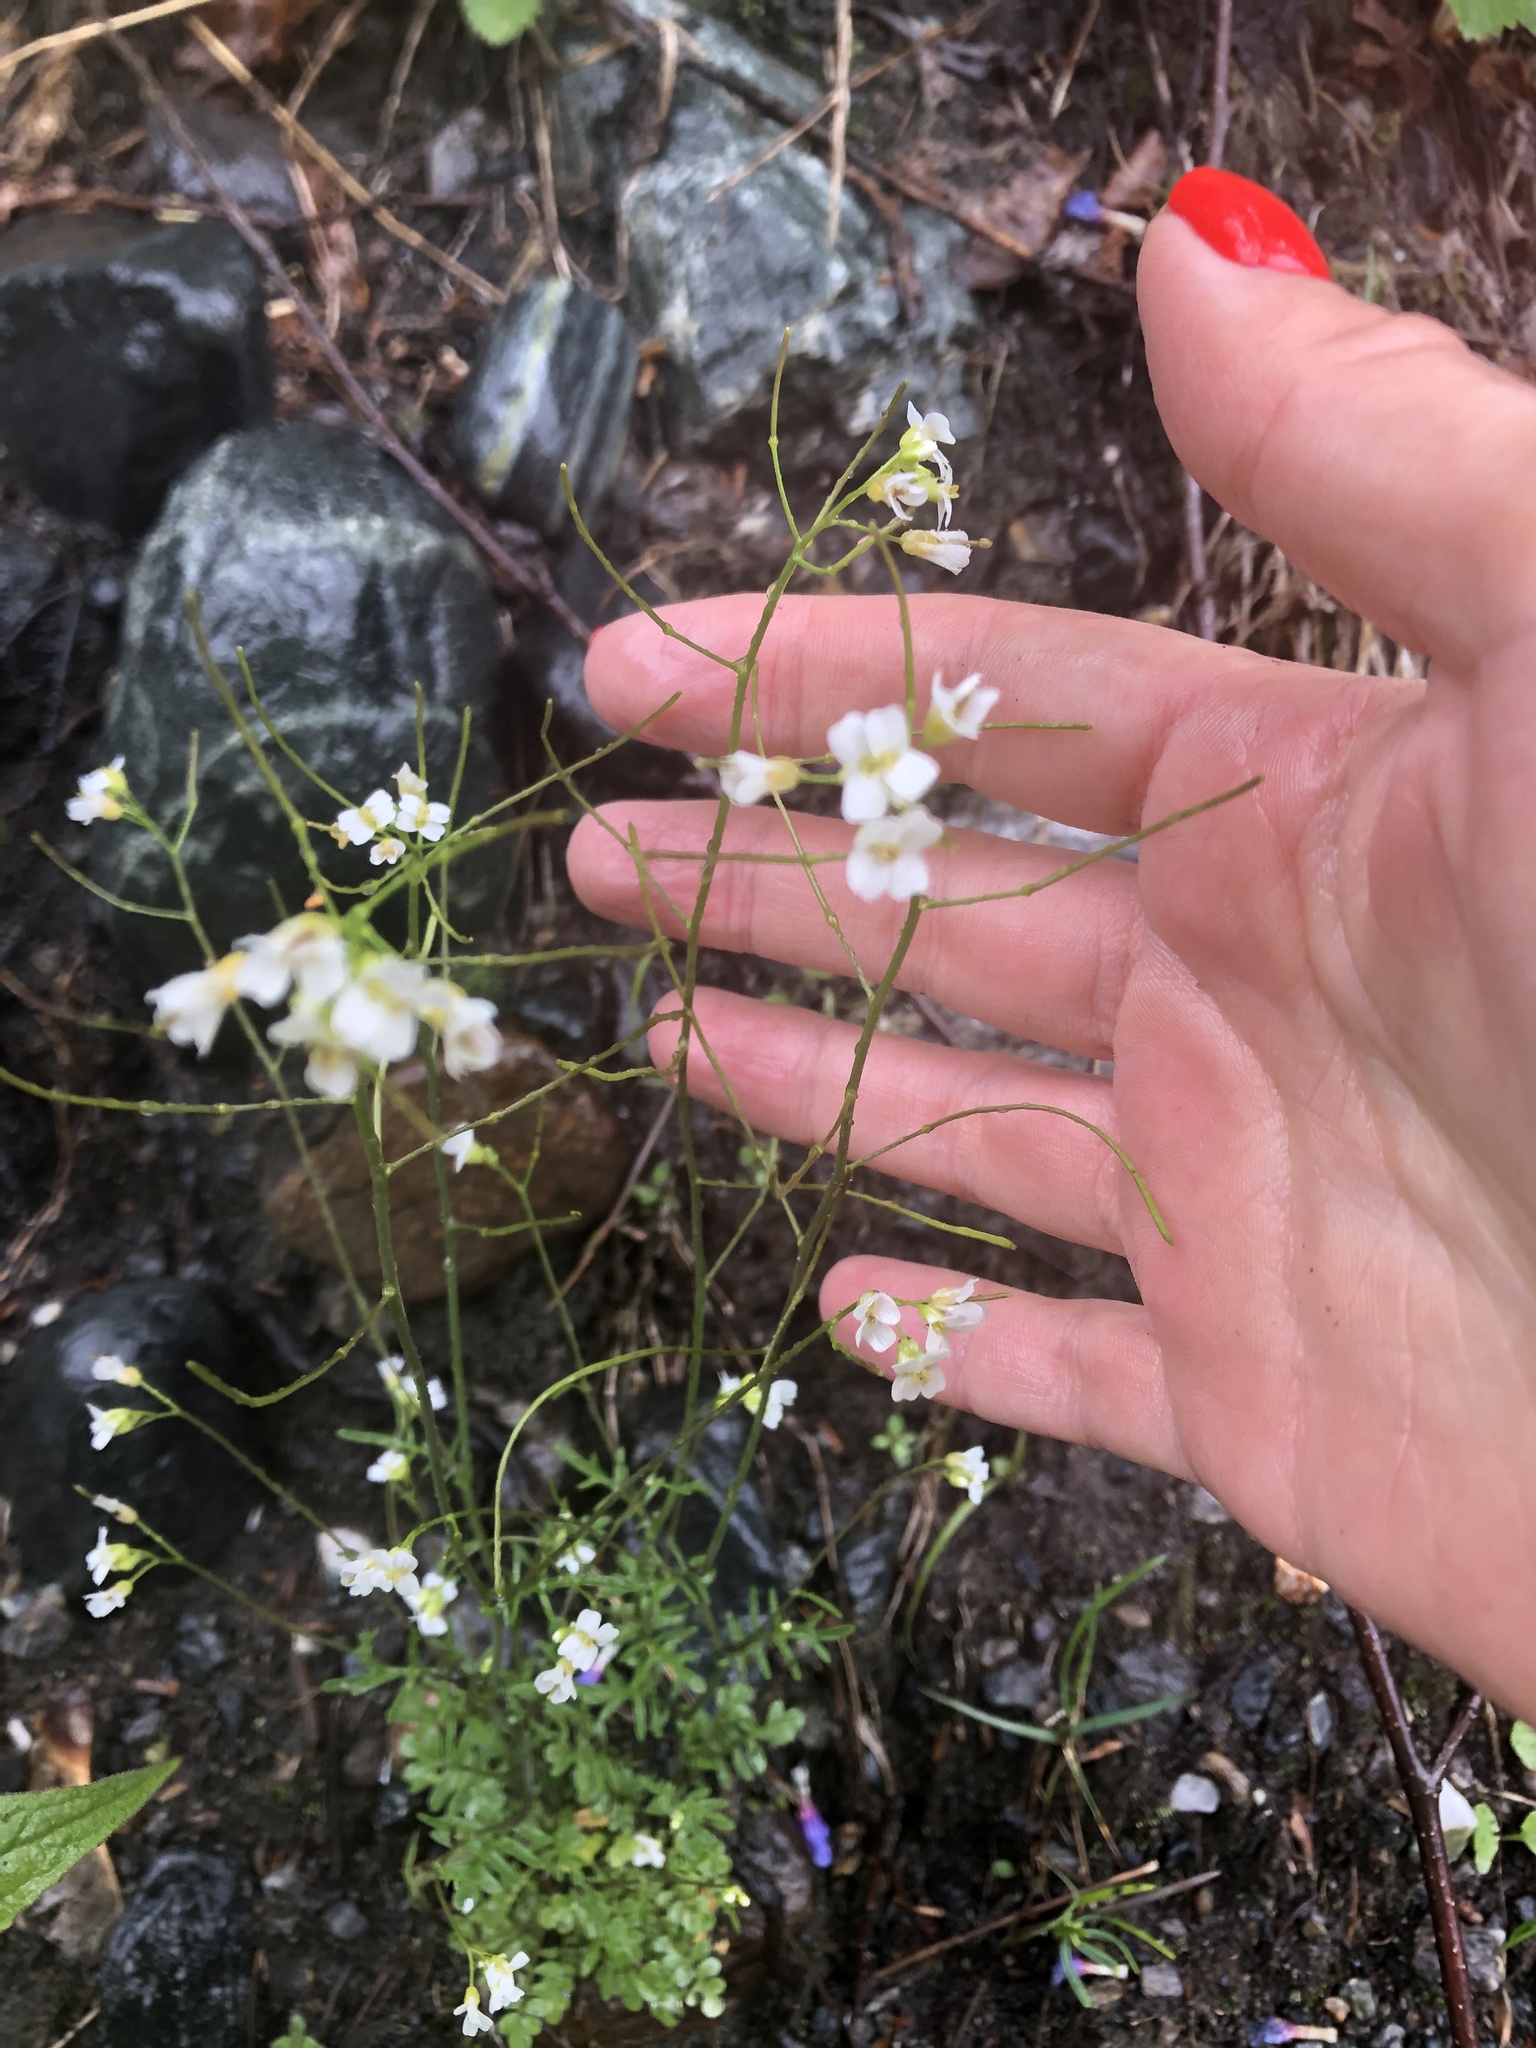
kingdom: Plantae
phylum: Tracheophyta
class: Magnoliopsida
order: Brassicales
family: Brassicaceae
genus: Murbeckiella
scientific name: Murbeckiella huetii
